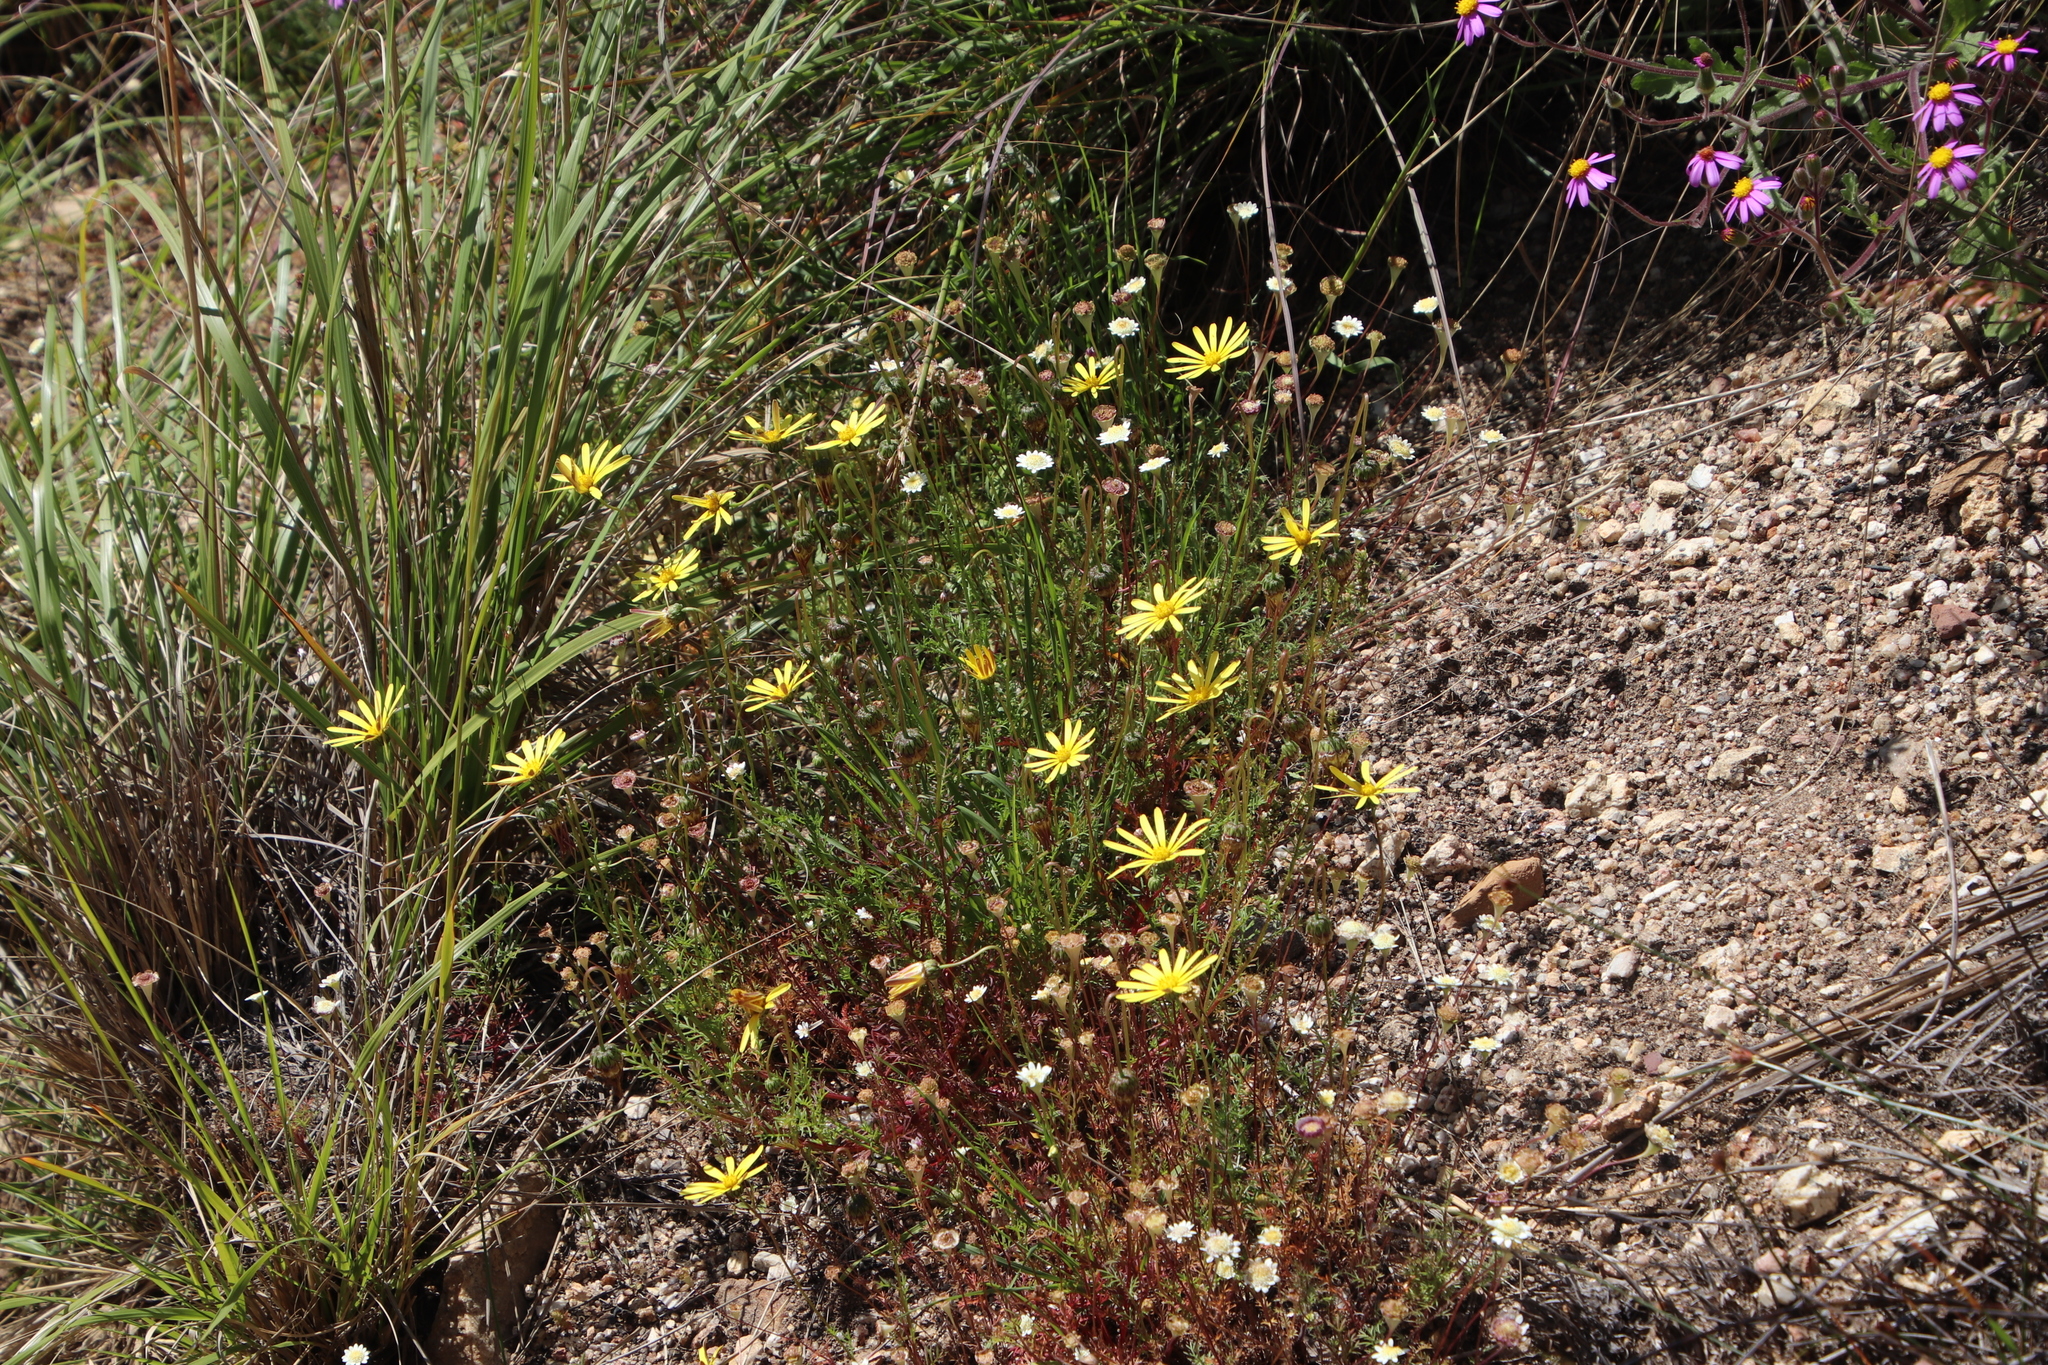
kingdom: Plantae
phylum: Tracheophyta
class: Magnoliopsida
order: Asterales
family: Asteraceae
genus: Ursinia
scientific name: Ursinia anthemoides
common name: Ursinia
